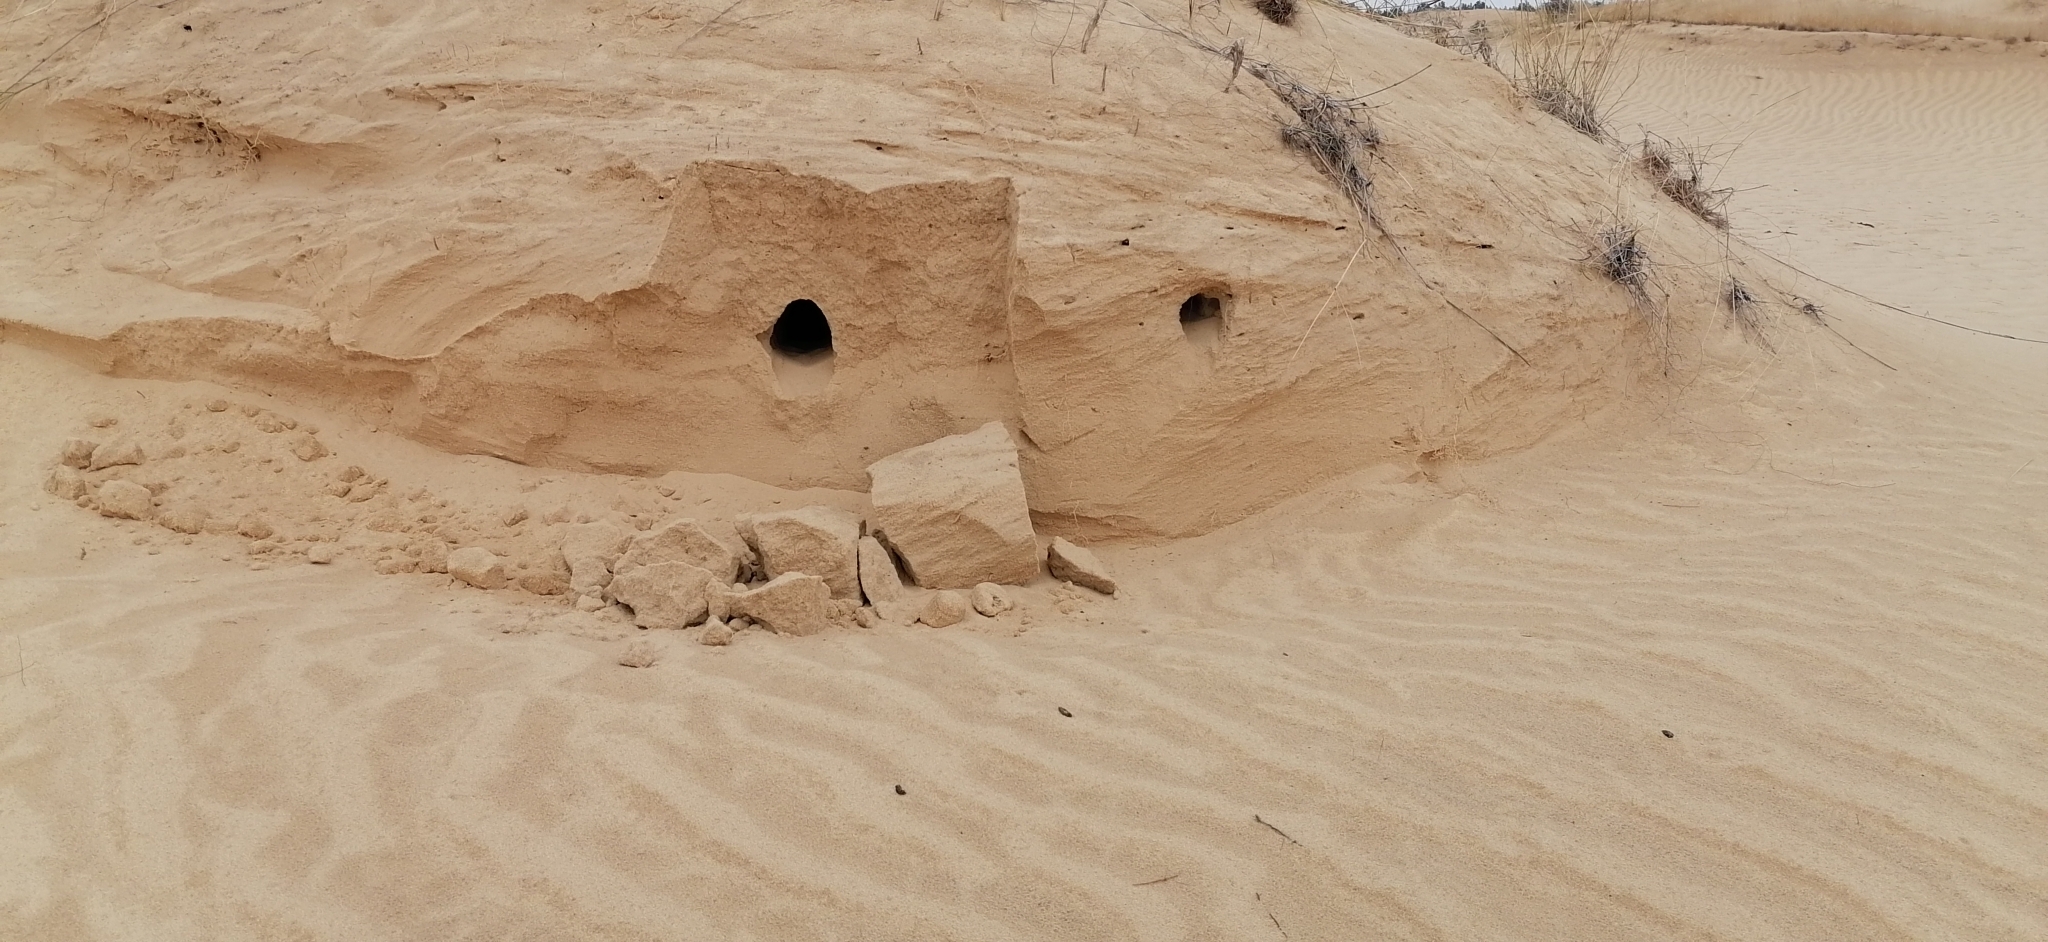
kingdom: Animalia
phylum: Chordata
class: Aves
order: Coraciiformes
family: Meropidae
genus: Merops
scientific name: Merops apiaster
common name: European bee-eater
